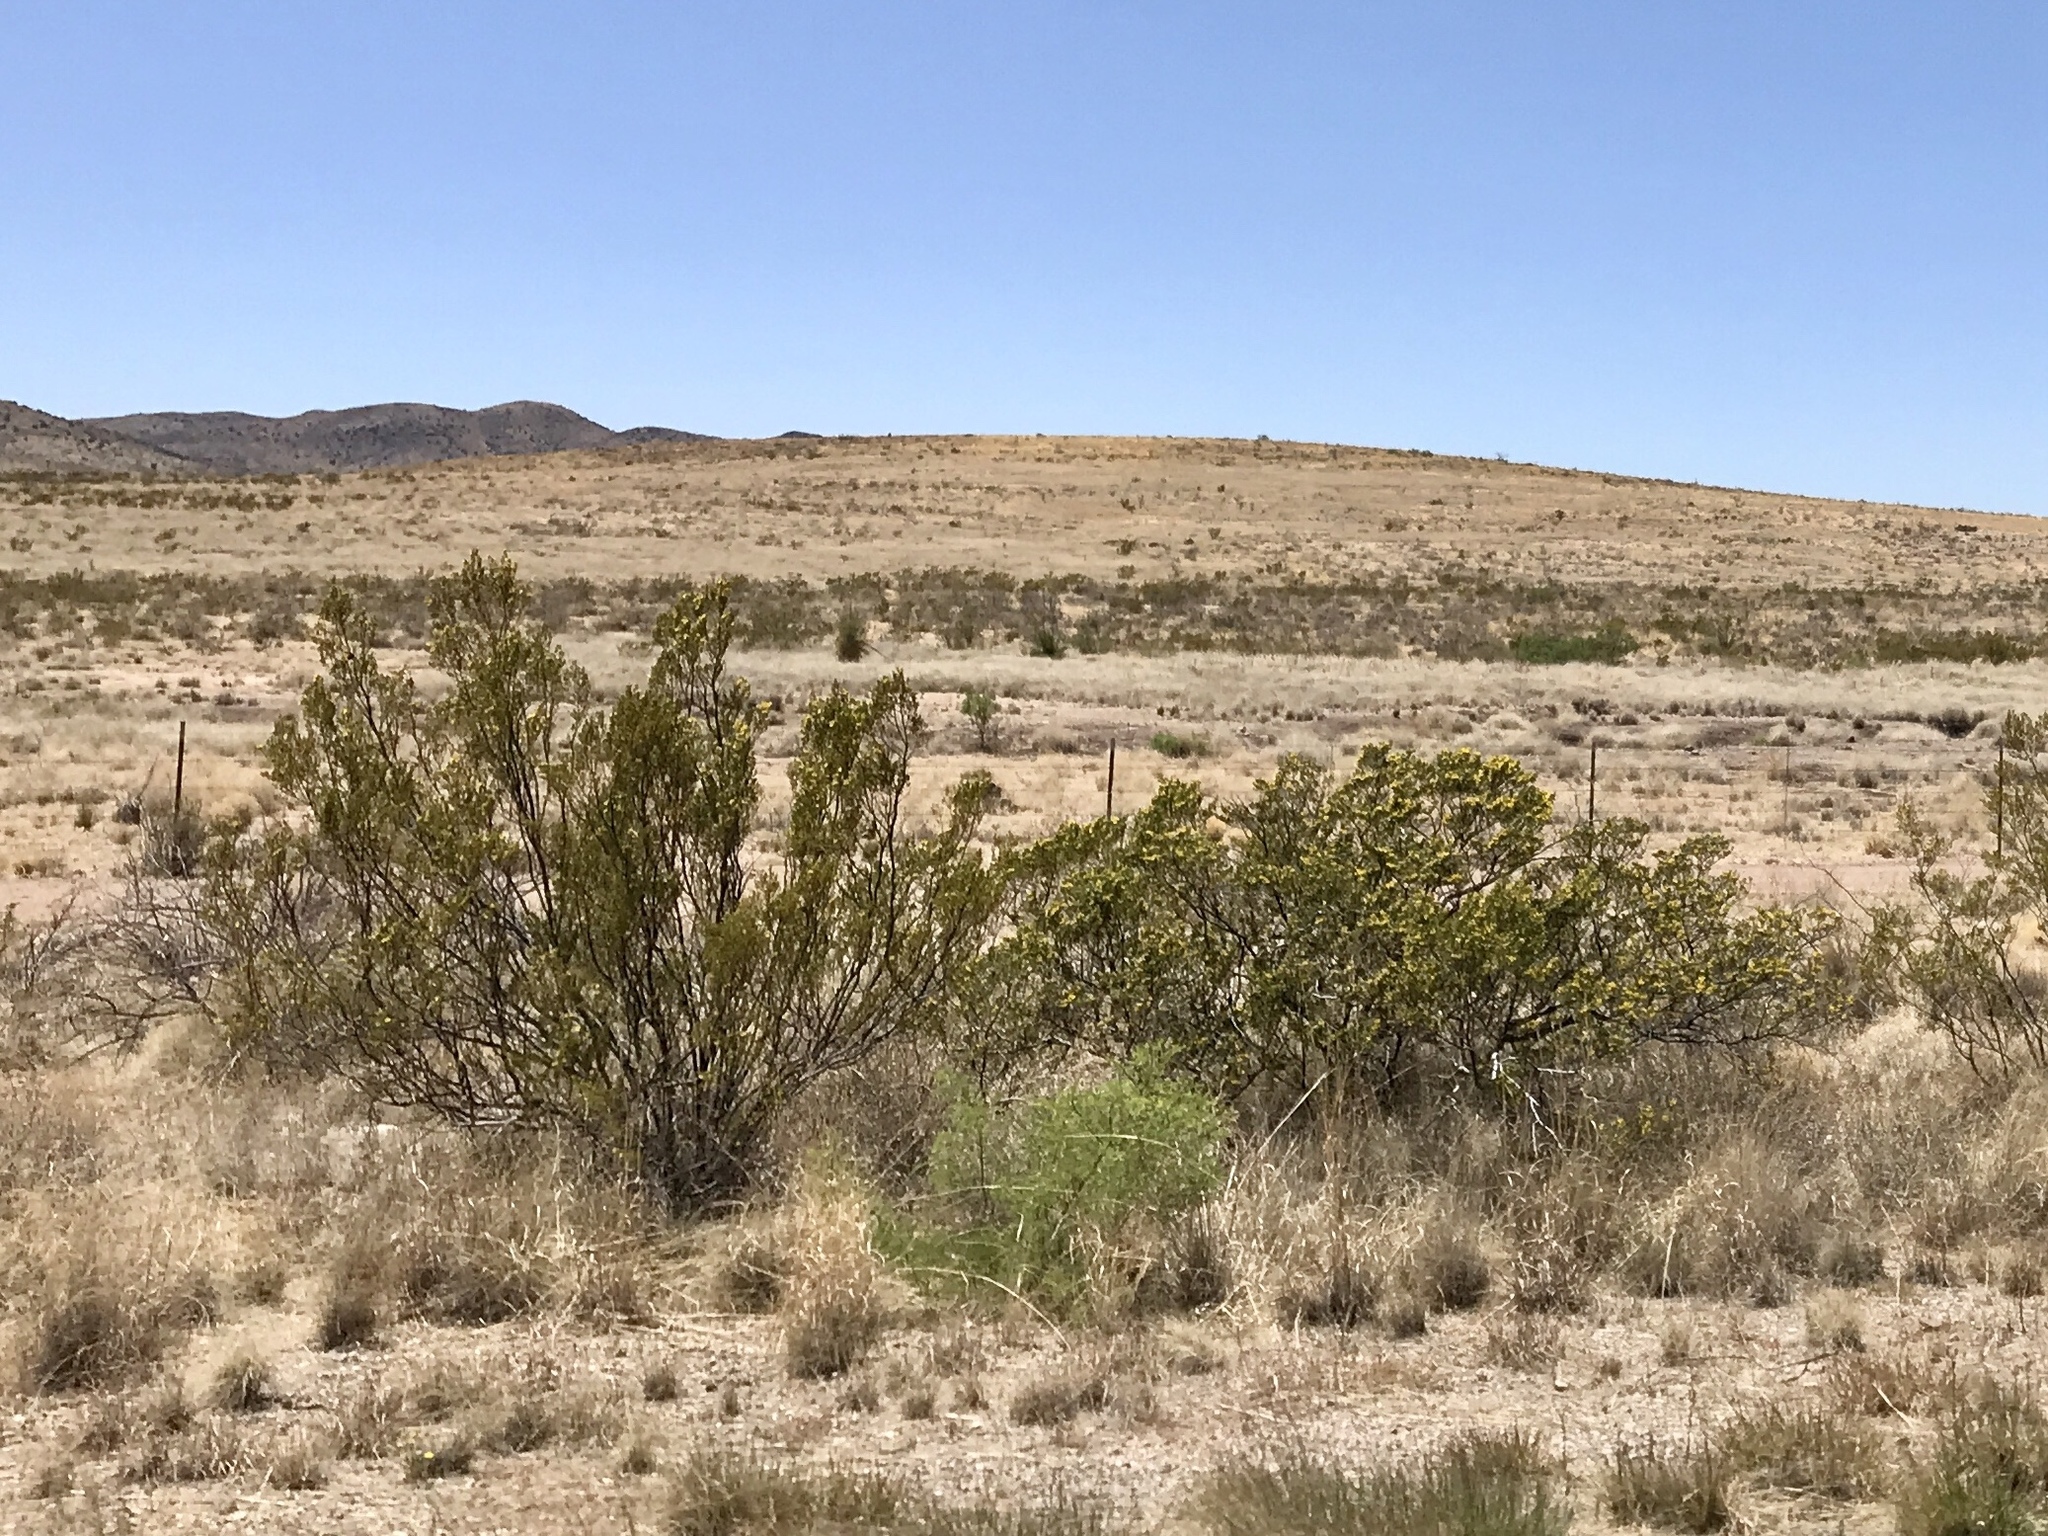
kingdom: Plantae
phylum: Tracheophyta
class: Magnoliopsida
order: Zygophyllales
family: Zygophyllaceae
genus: Larrea
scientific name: Larrea tridentata
